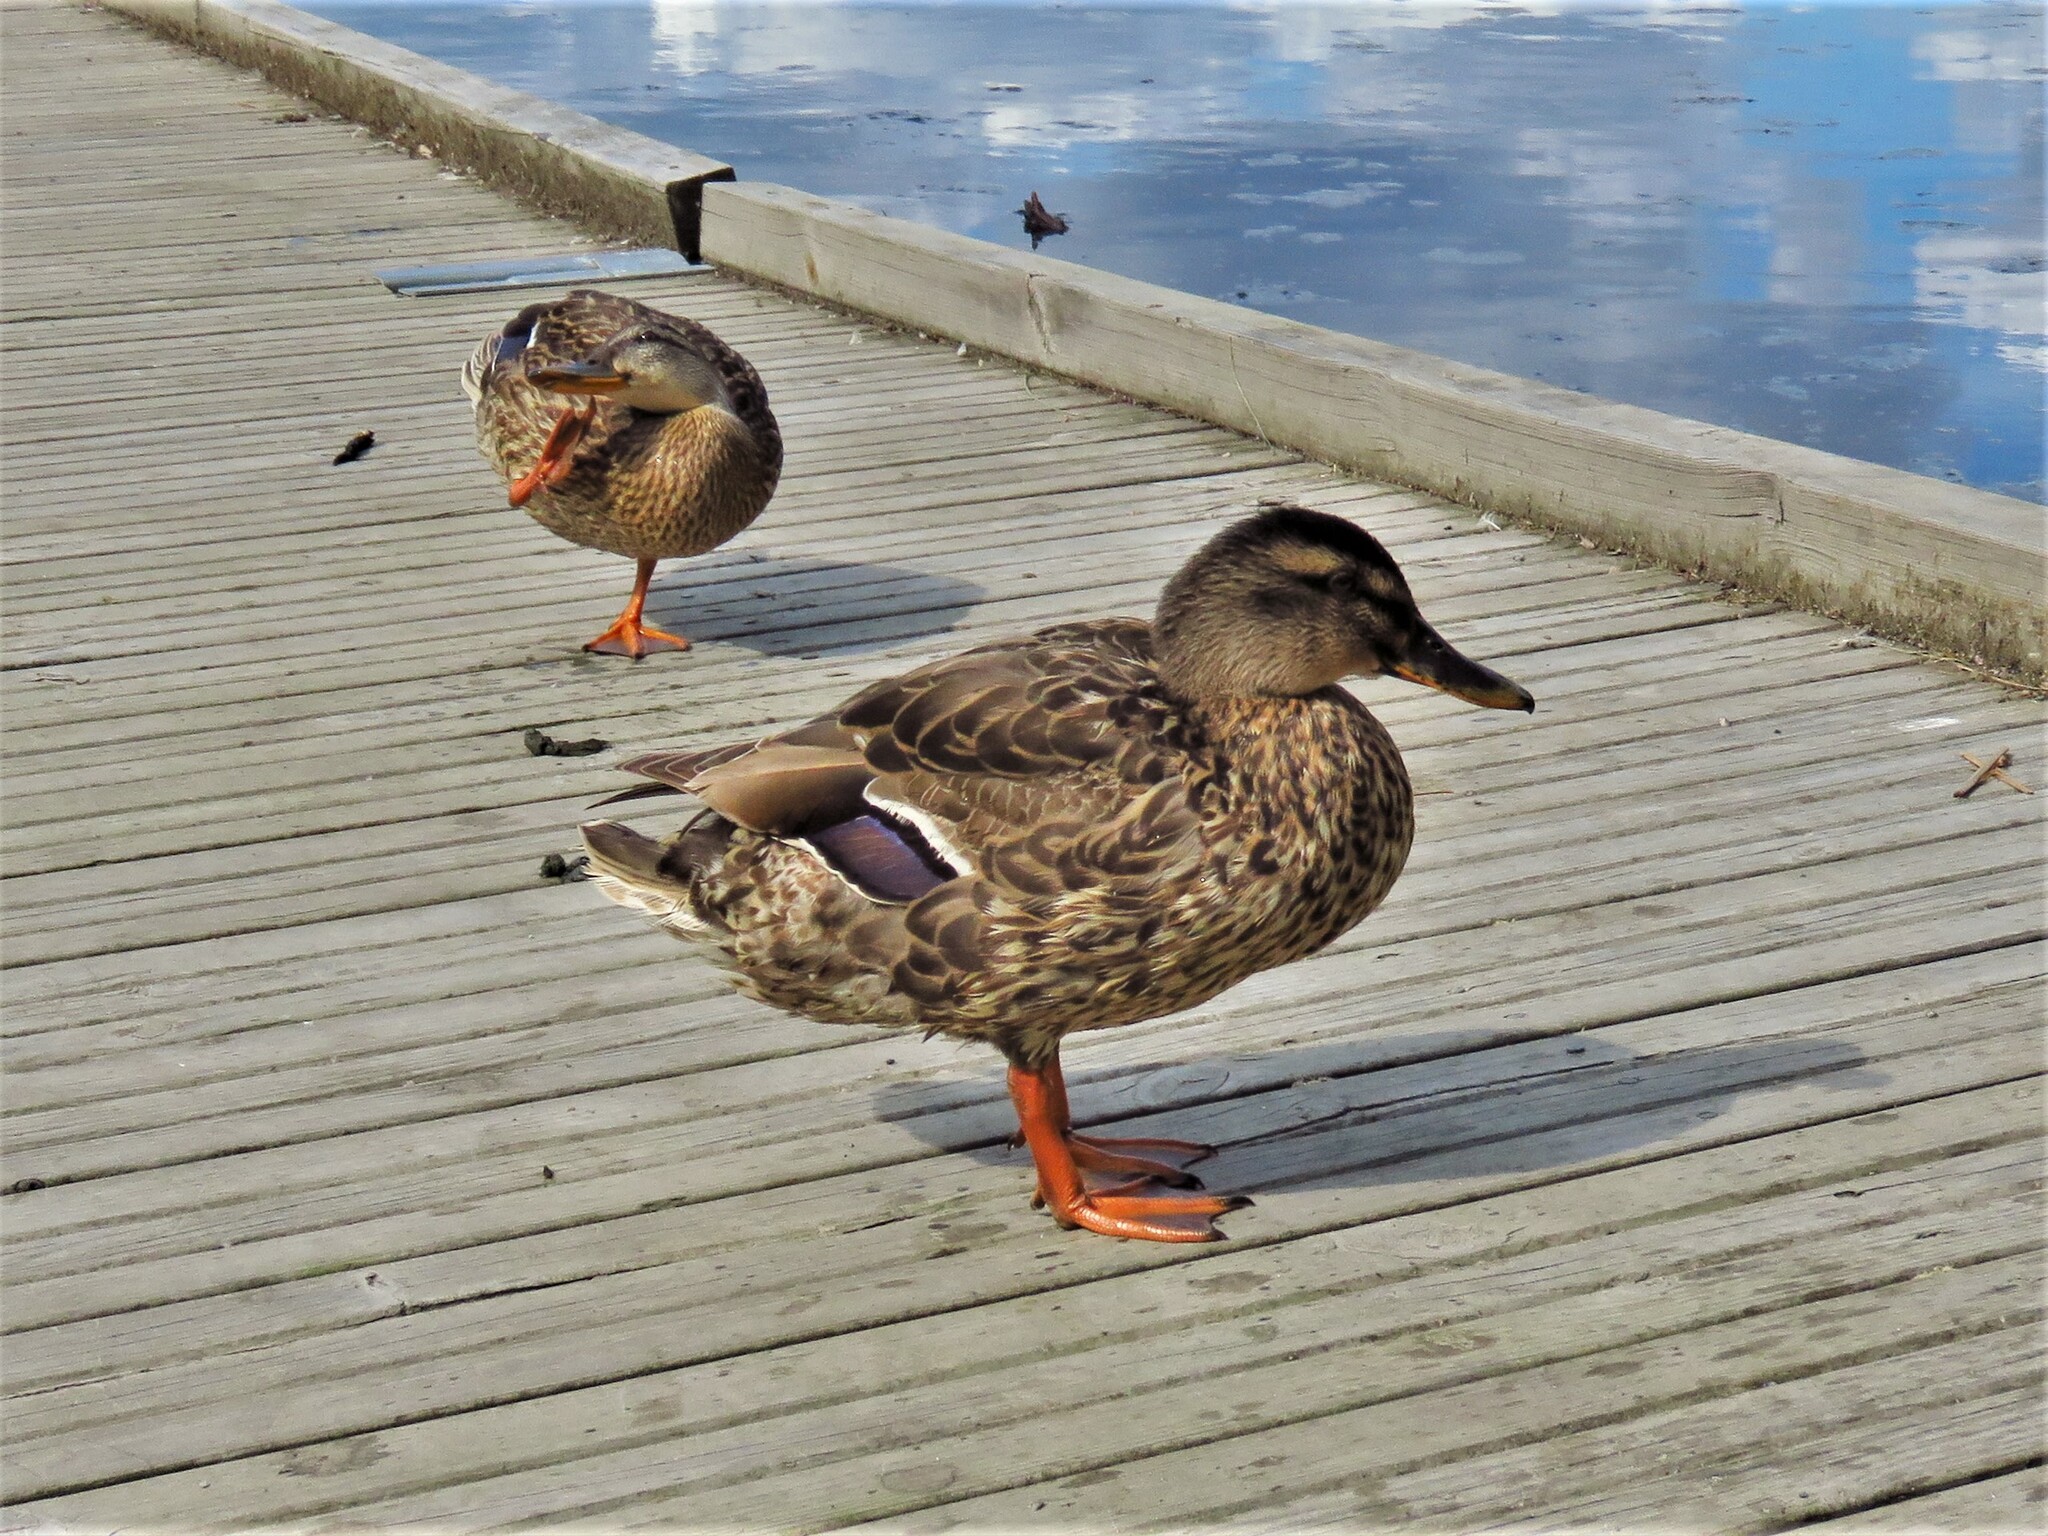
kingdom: Animalia
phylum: Chordata
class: Aves
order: Anseriformes
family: Anatidae
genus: Anas
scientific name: Anas platyrhynchos
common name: Mallard
